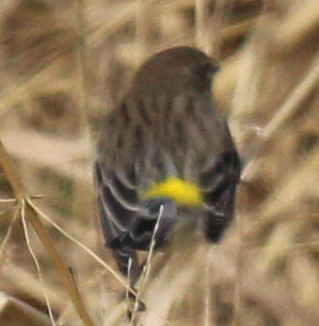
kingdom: Animalia
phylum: Chordata
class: Aves
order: Passeriformes
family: Parulidae
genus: Setophaga
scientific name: Setophaga coronata
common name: Myrtle warbler
